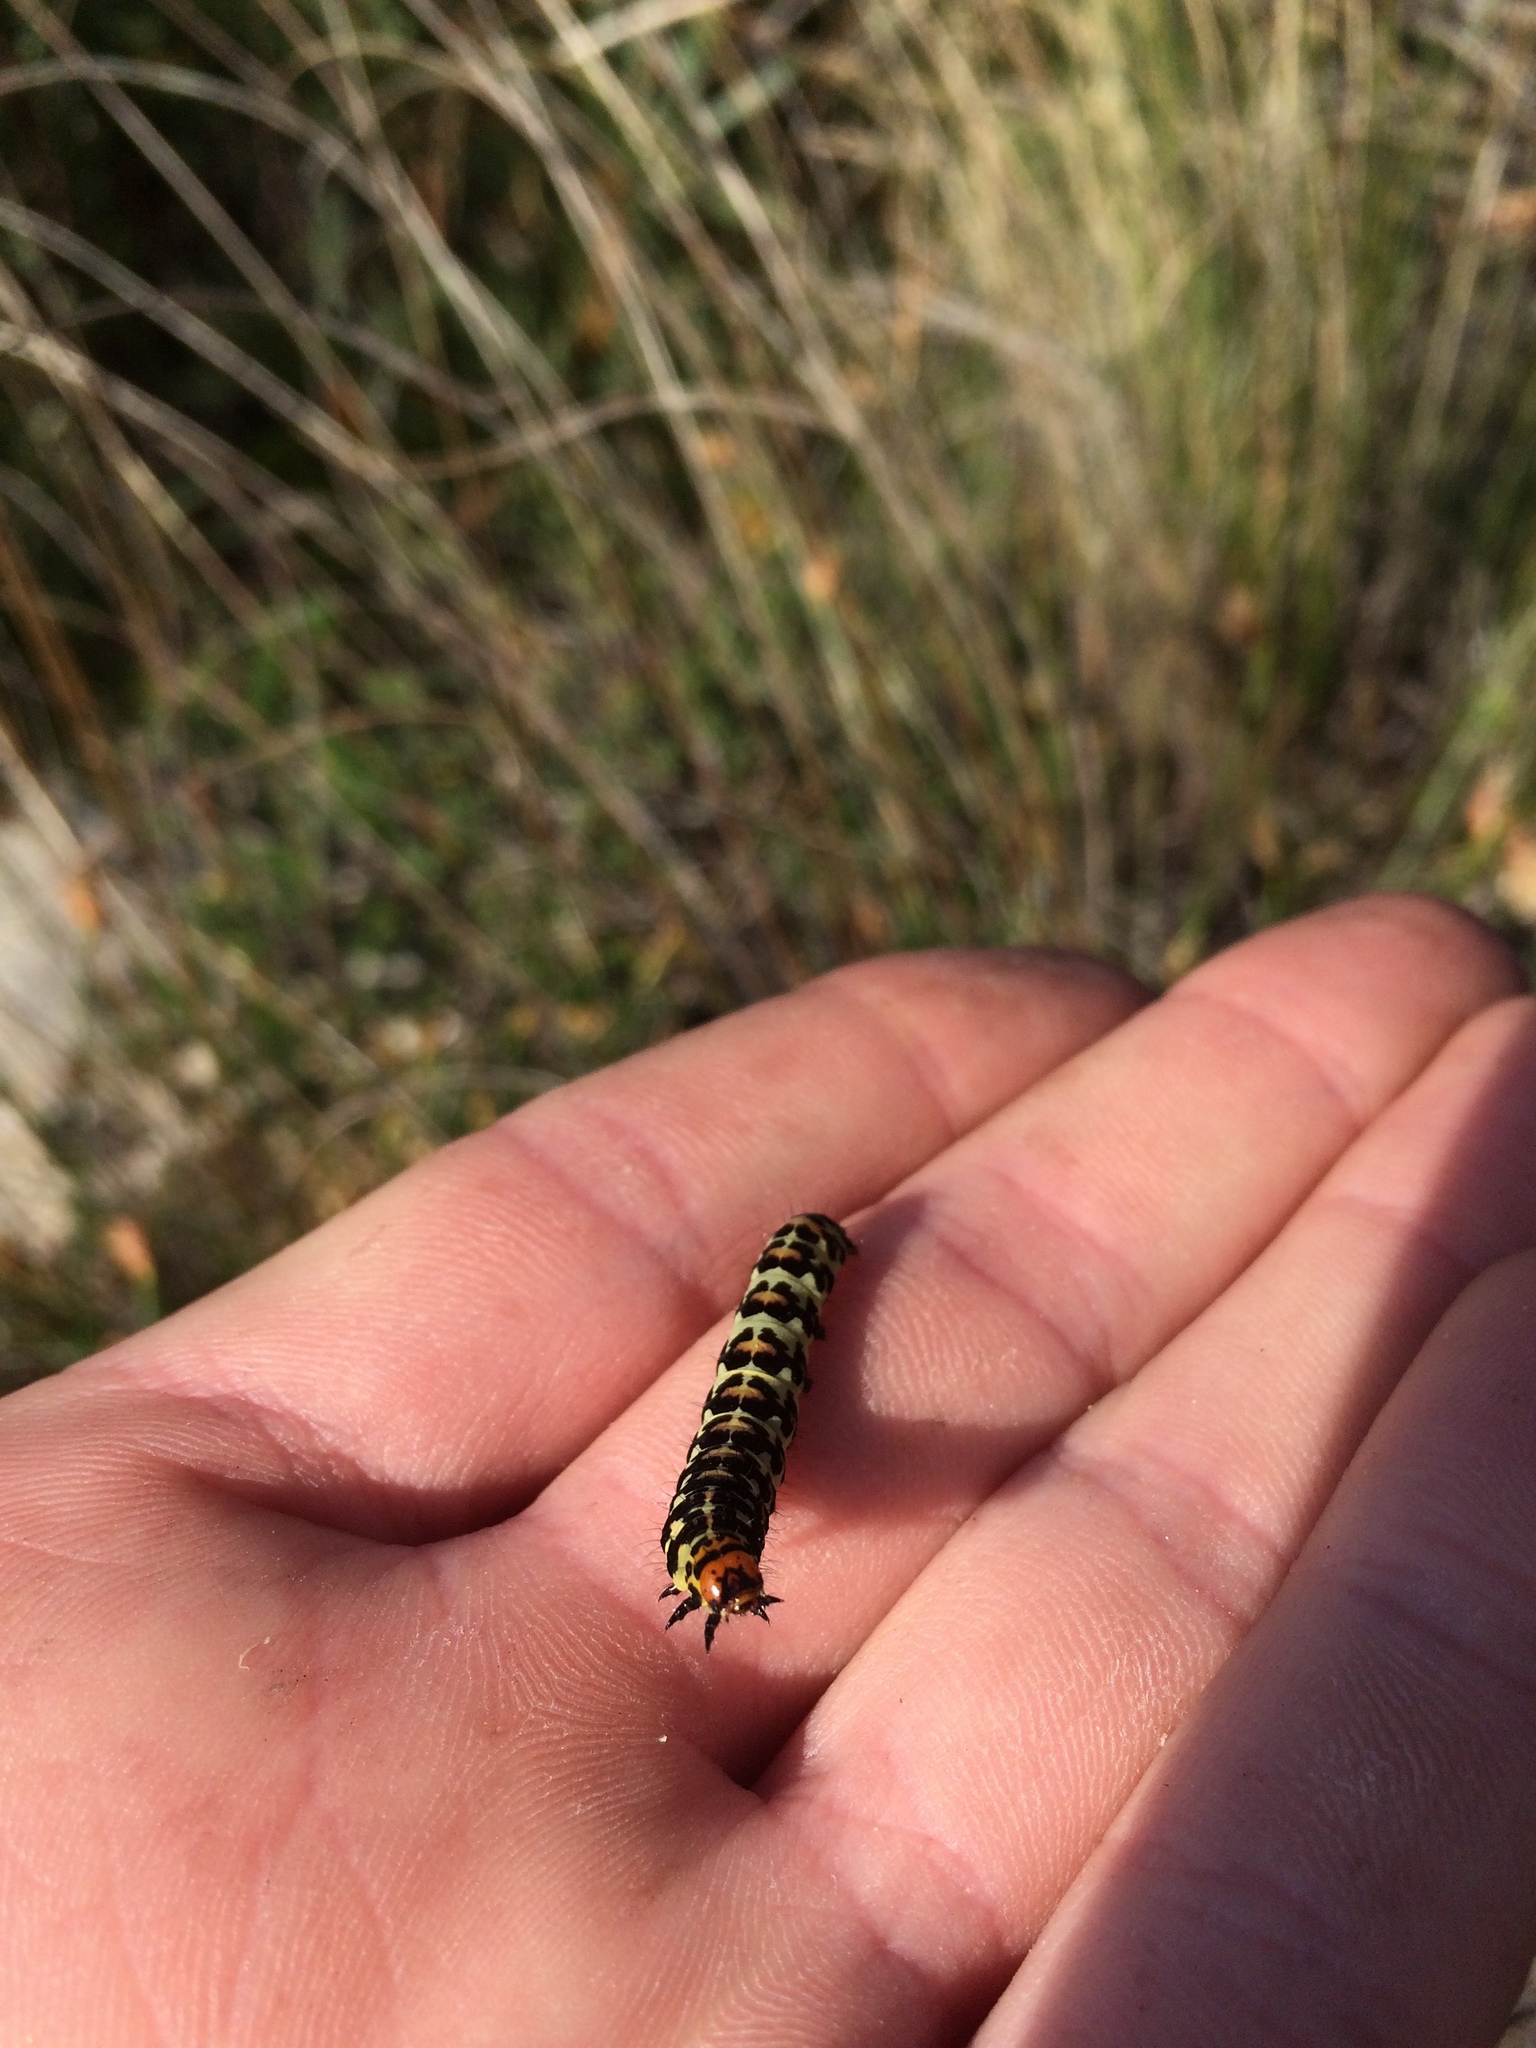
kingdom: Animalia
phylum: Arthropoda
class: Insecta
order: Lepidoptera
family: Noctuidae
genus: Diaphone
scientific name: Diaphone eumela
